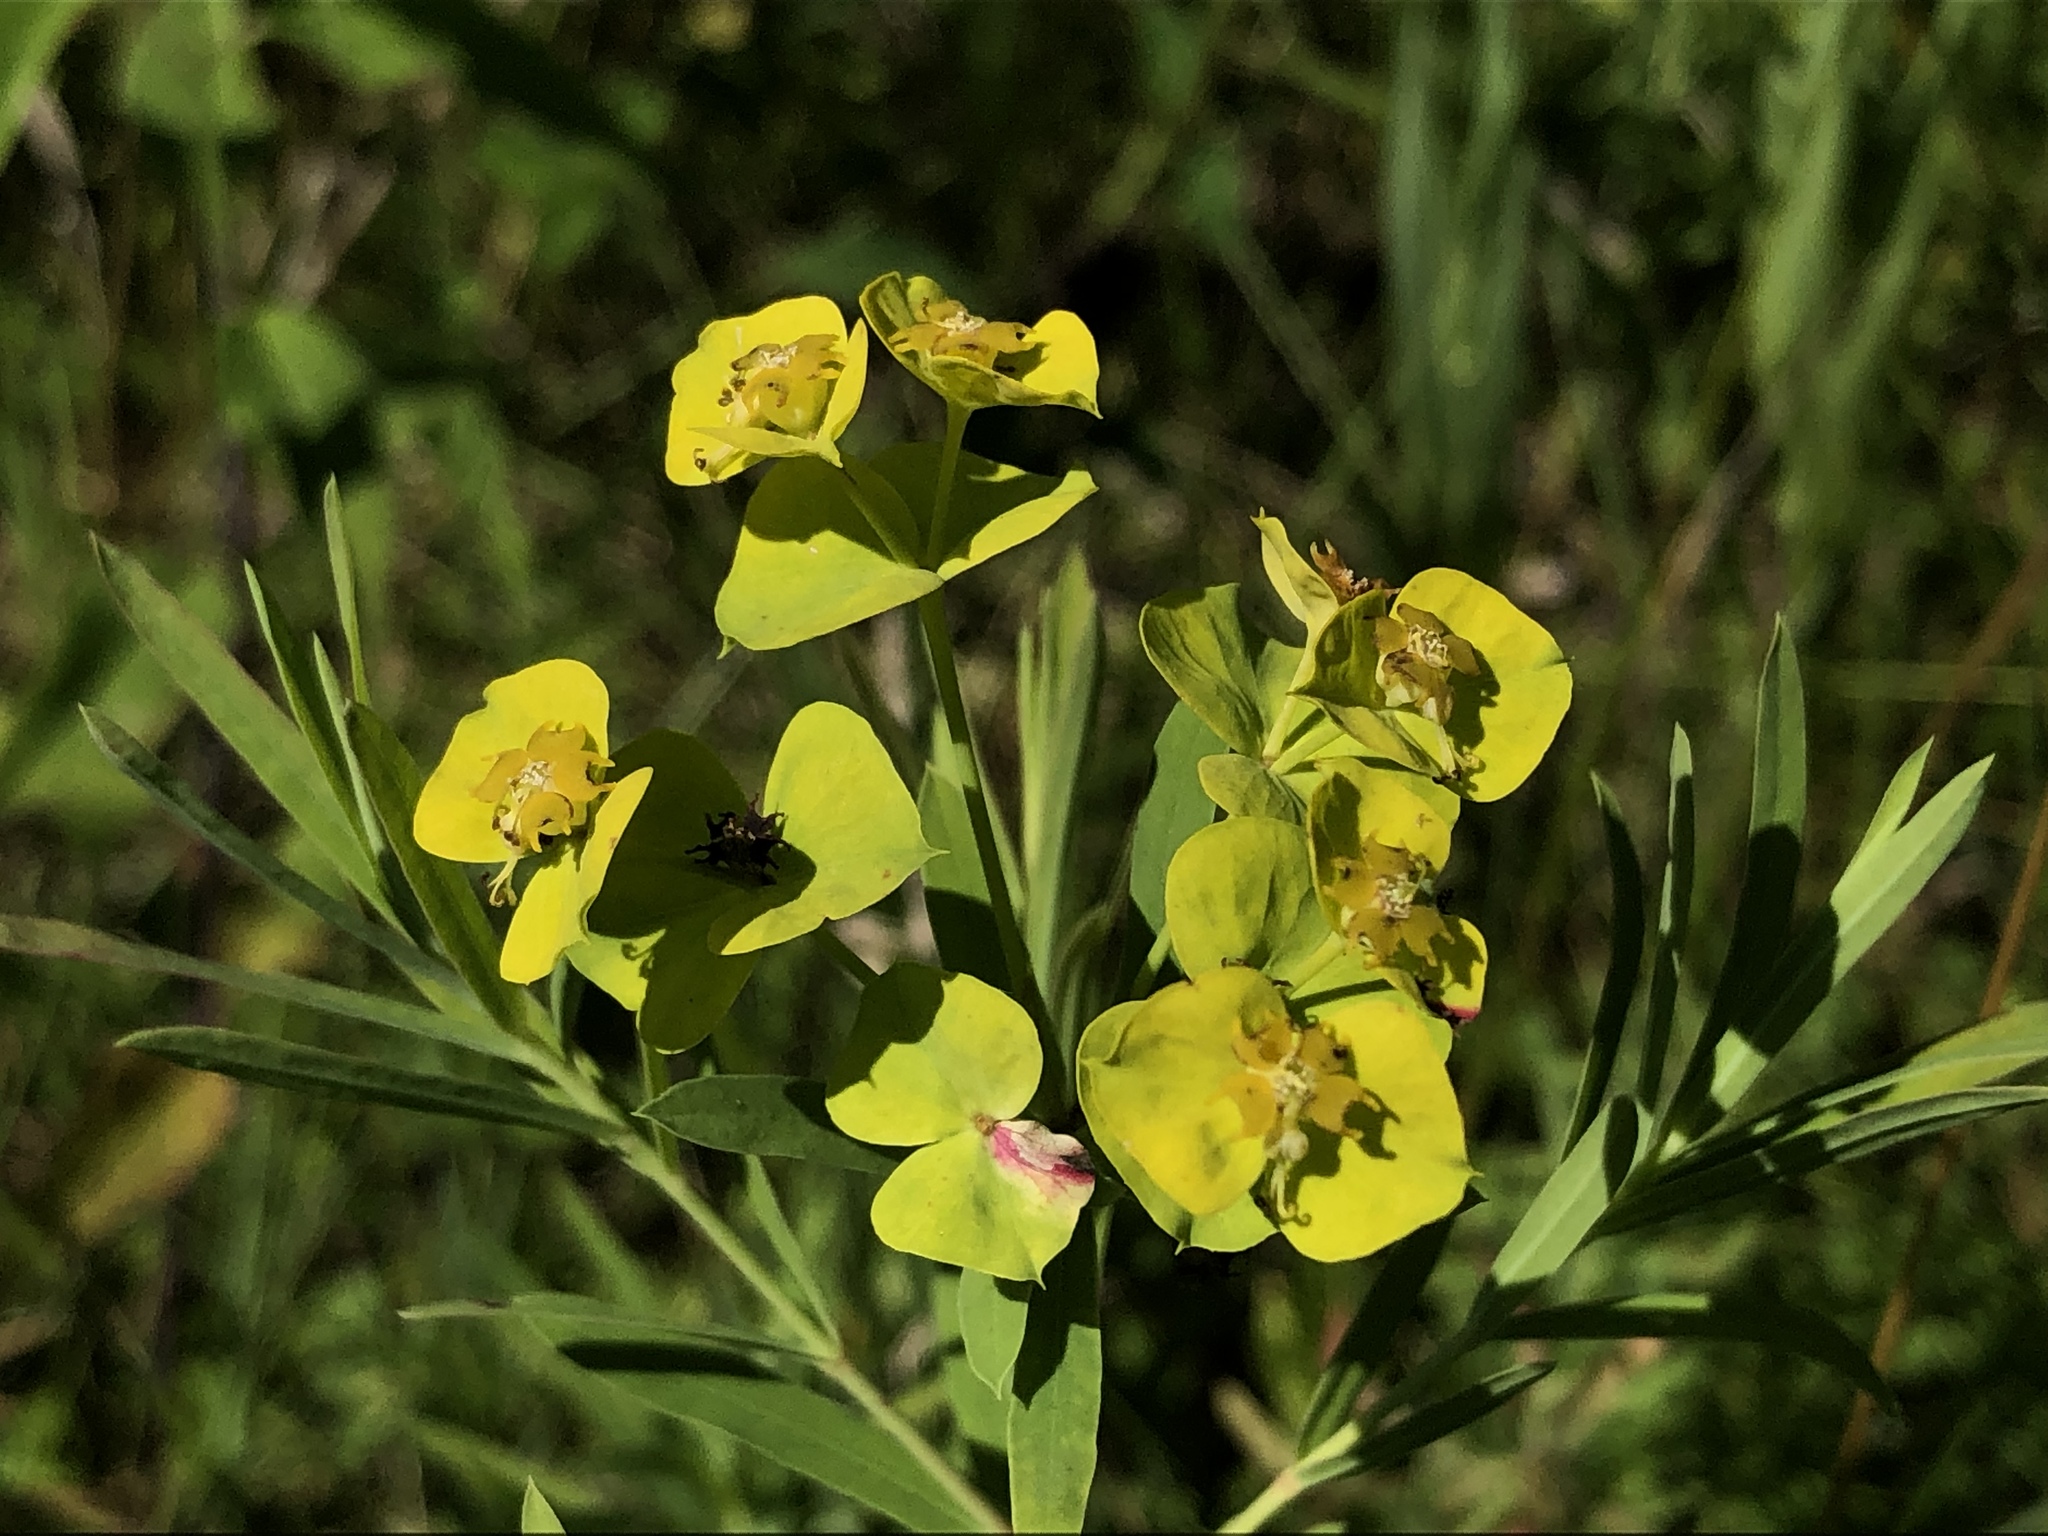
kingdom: Plantae
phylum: Tracheophyta
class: Magnoliopsida
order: Malpighiales
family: Euphorbiaceae
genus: Euphorbia
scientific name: Euphorbia virgata
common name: Leafy spurge
